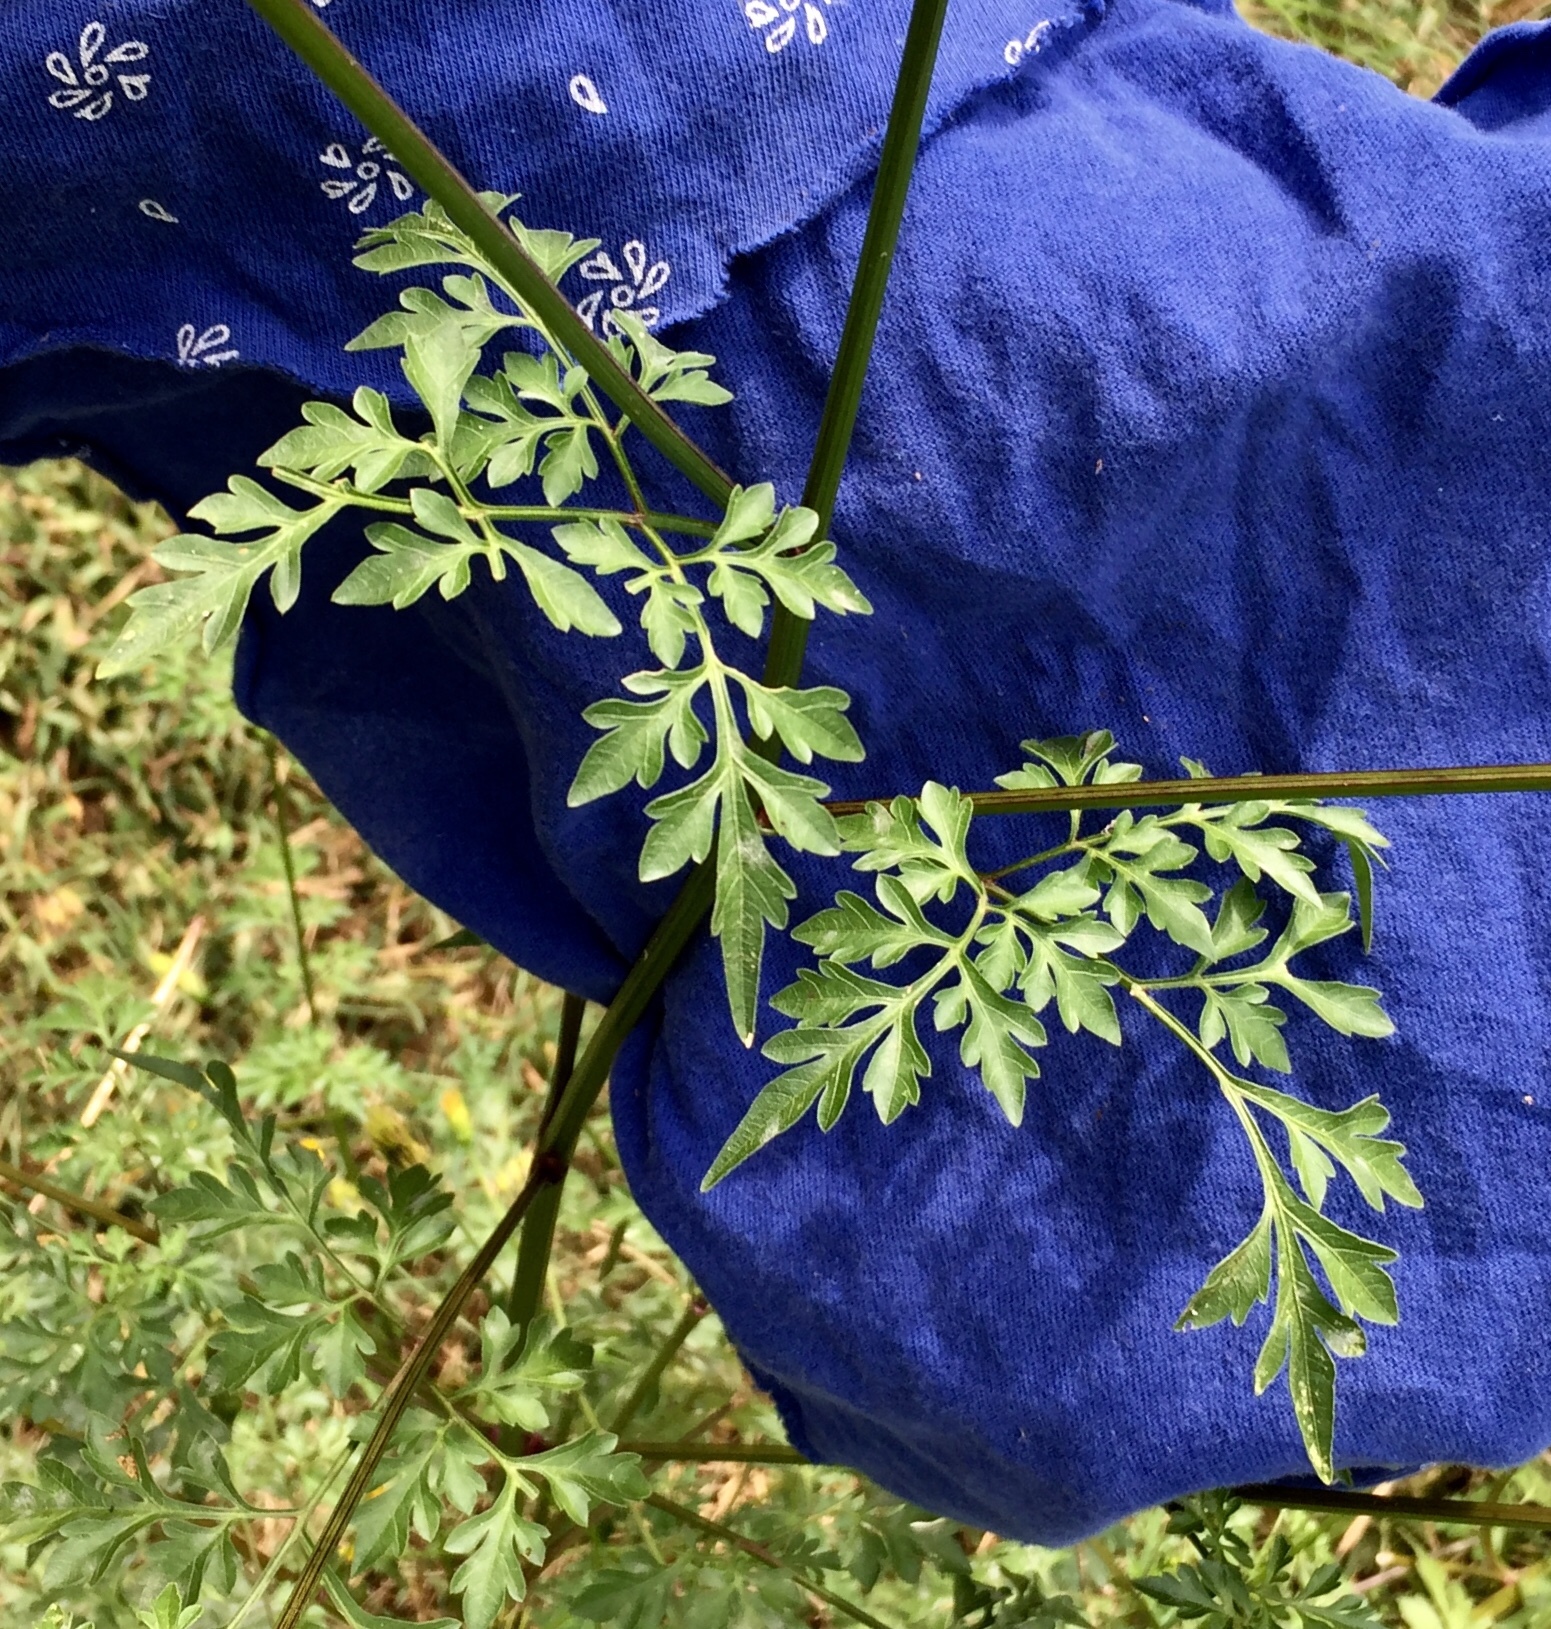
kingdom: Plantae
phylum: Tracheophyta
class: Magnoliopsida
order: Asterales
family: Asteraceae
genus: Bidens
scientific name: Bidens bipinnata
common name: Spanish-needles
